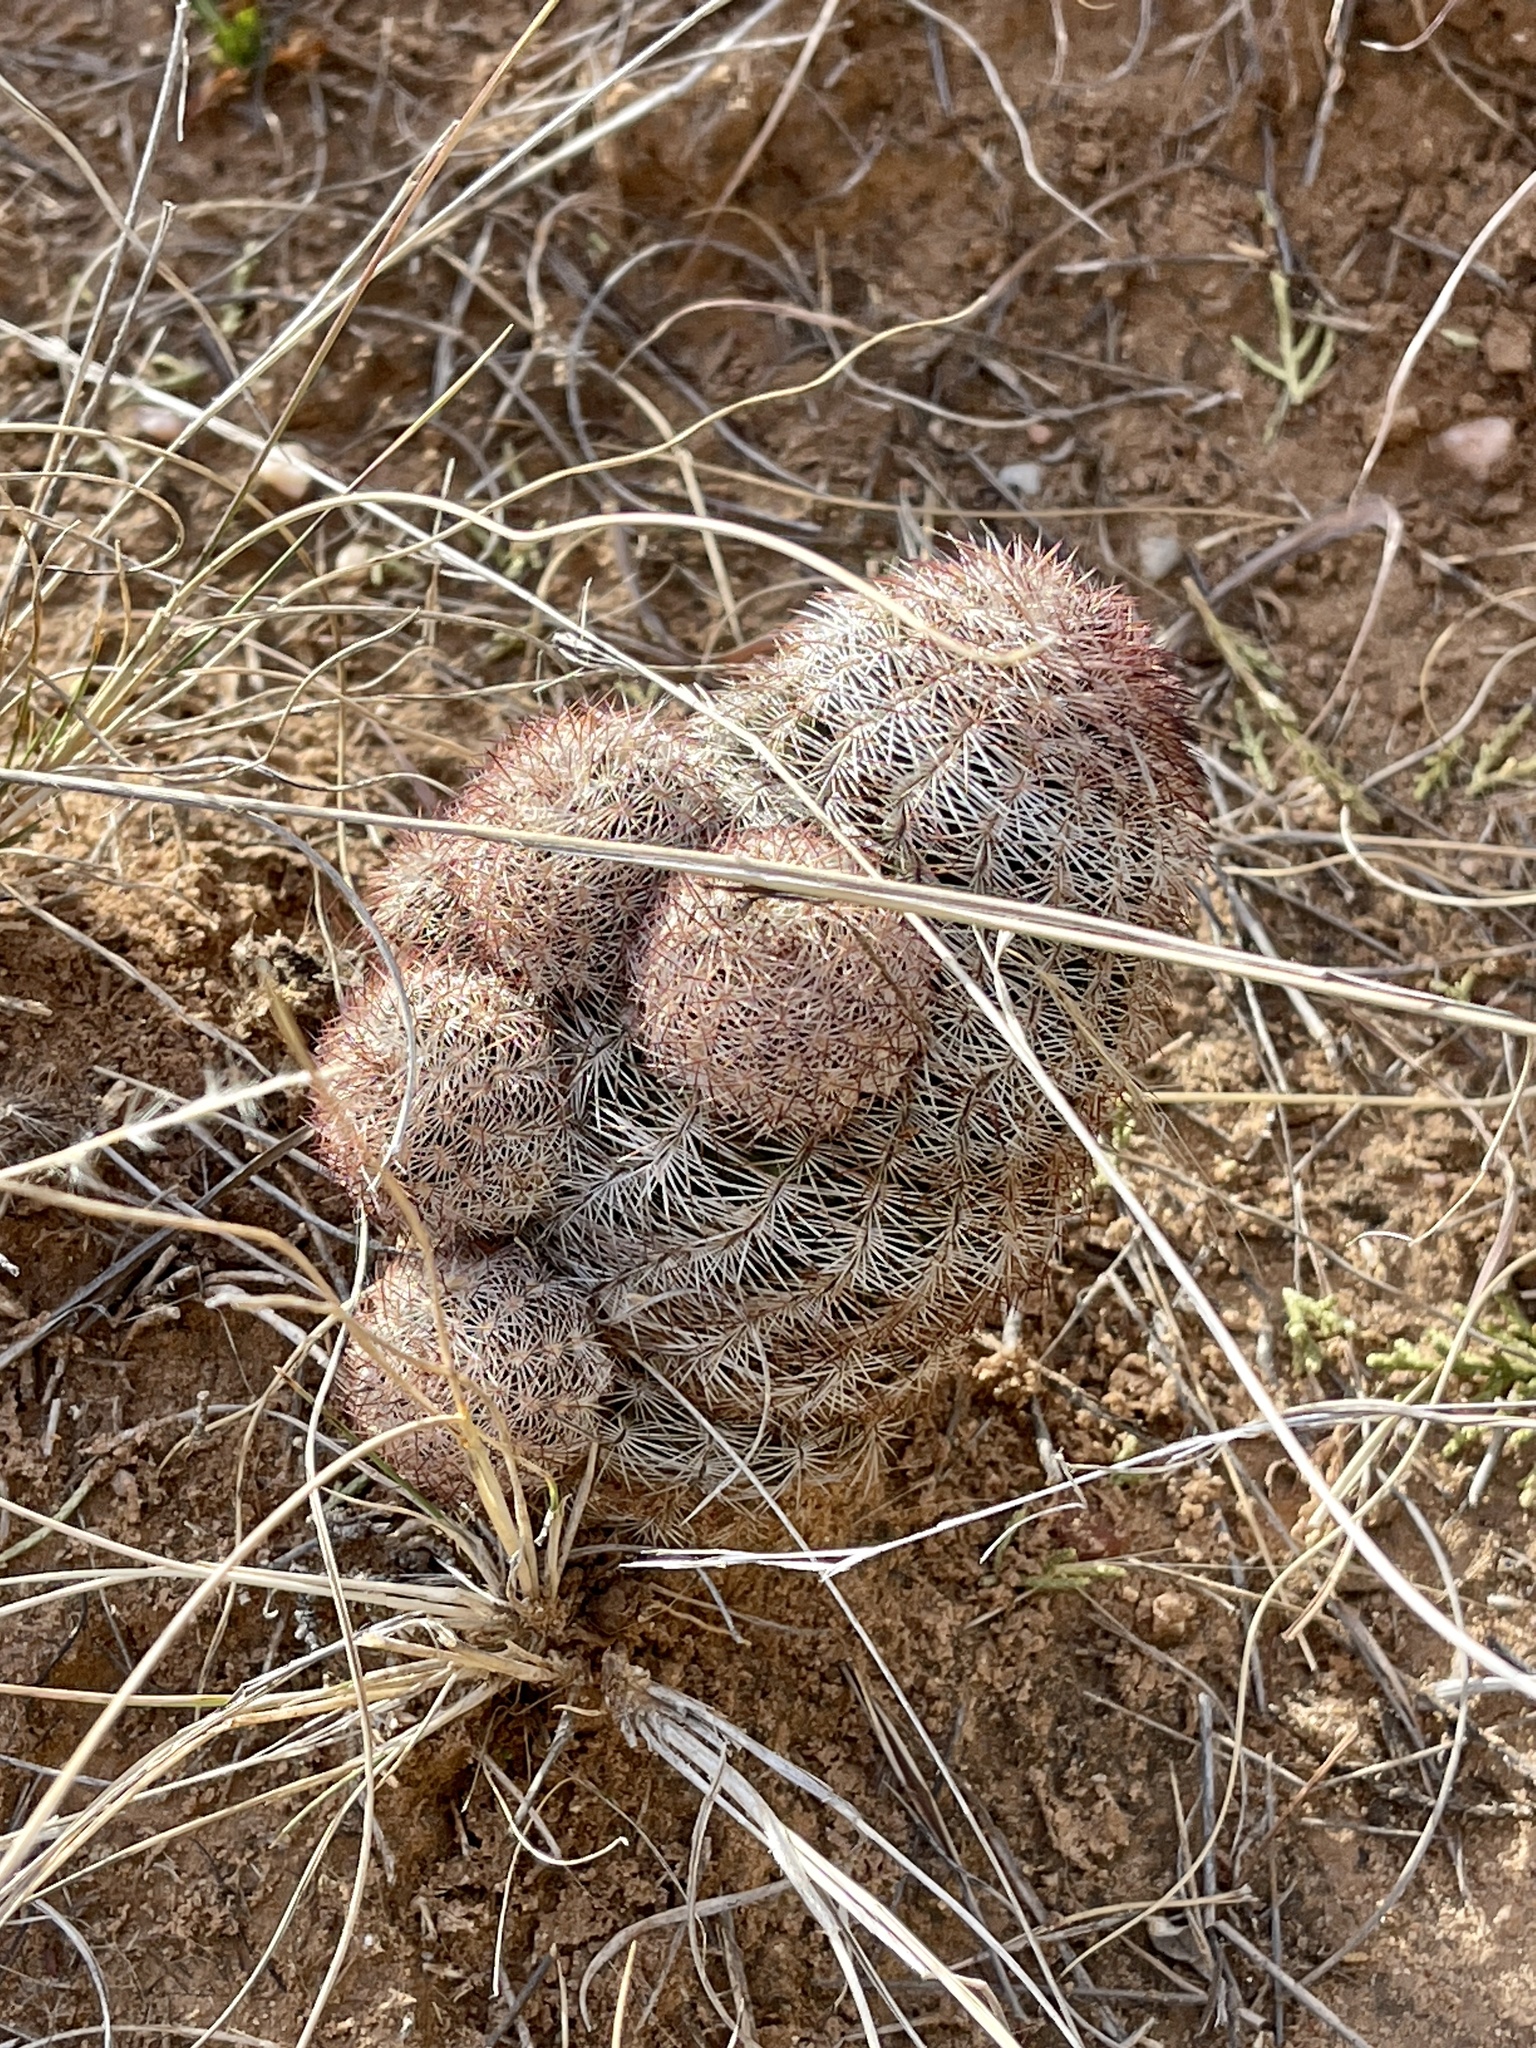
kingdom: Plantae
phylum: Tracheophyta
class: Magnoliopsida
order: Caryophyllales
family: Cactaceae
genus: Echinocereus
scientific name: Echinocereus reichenbachii
